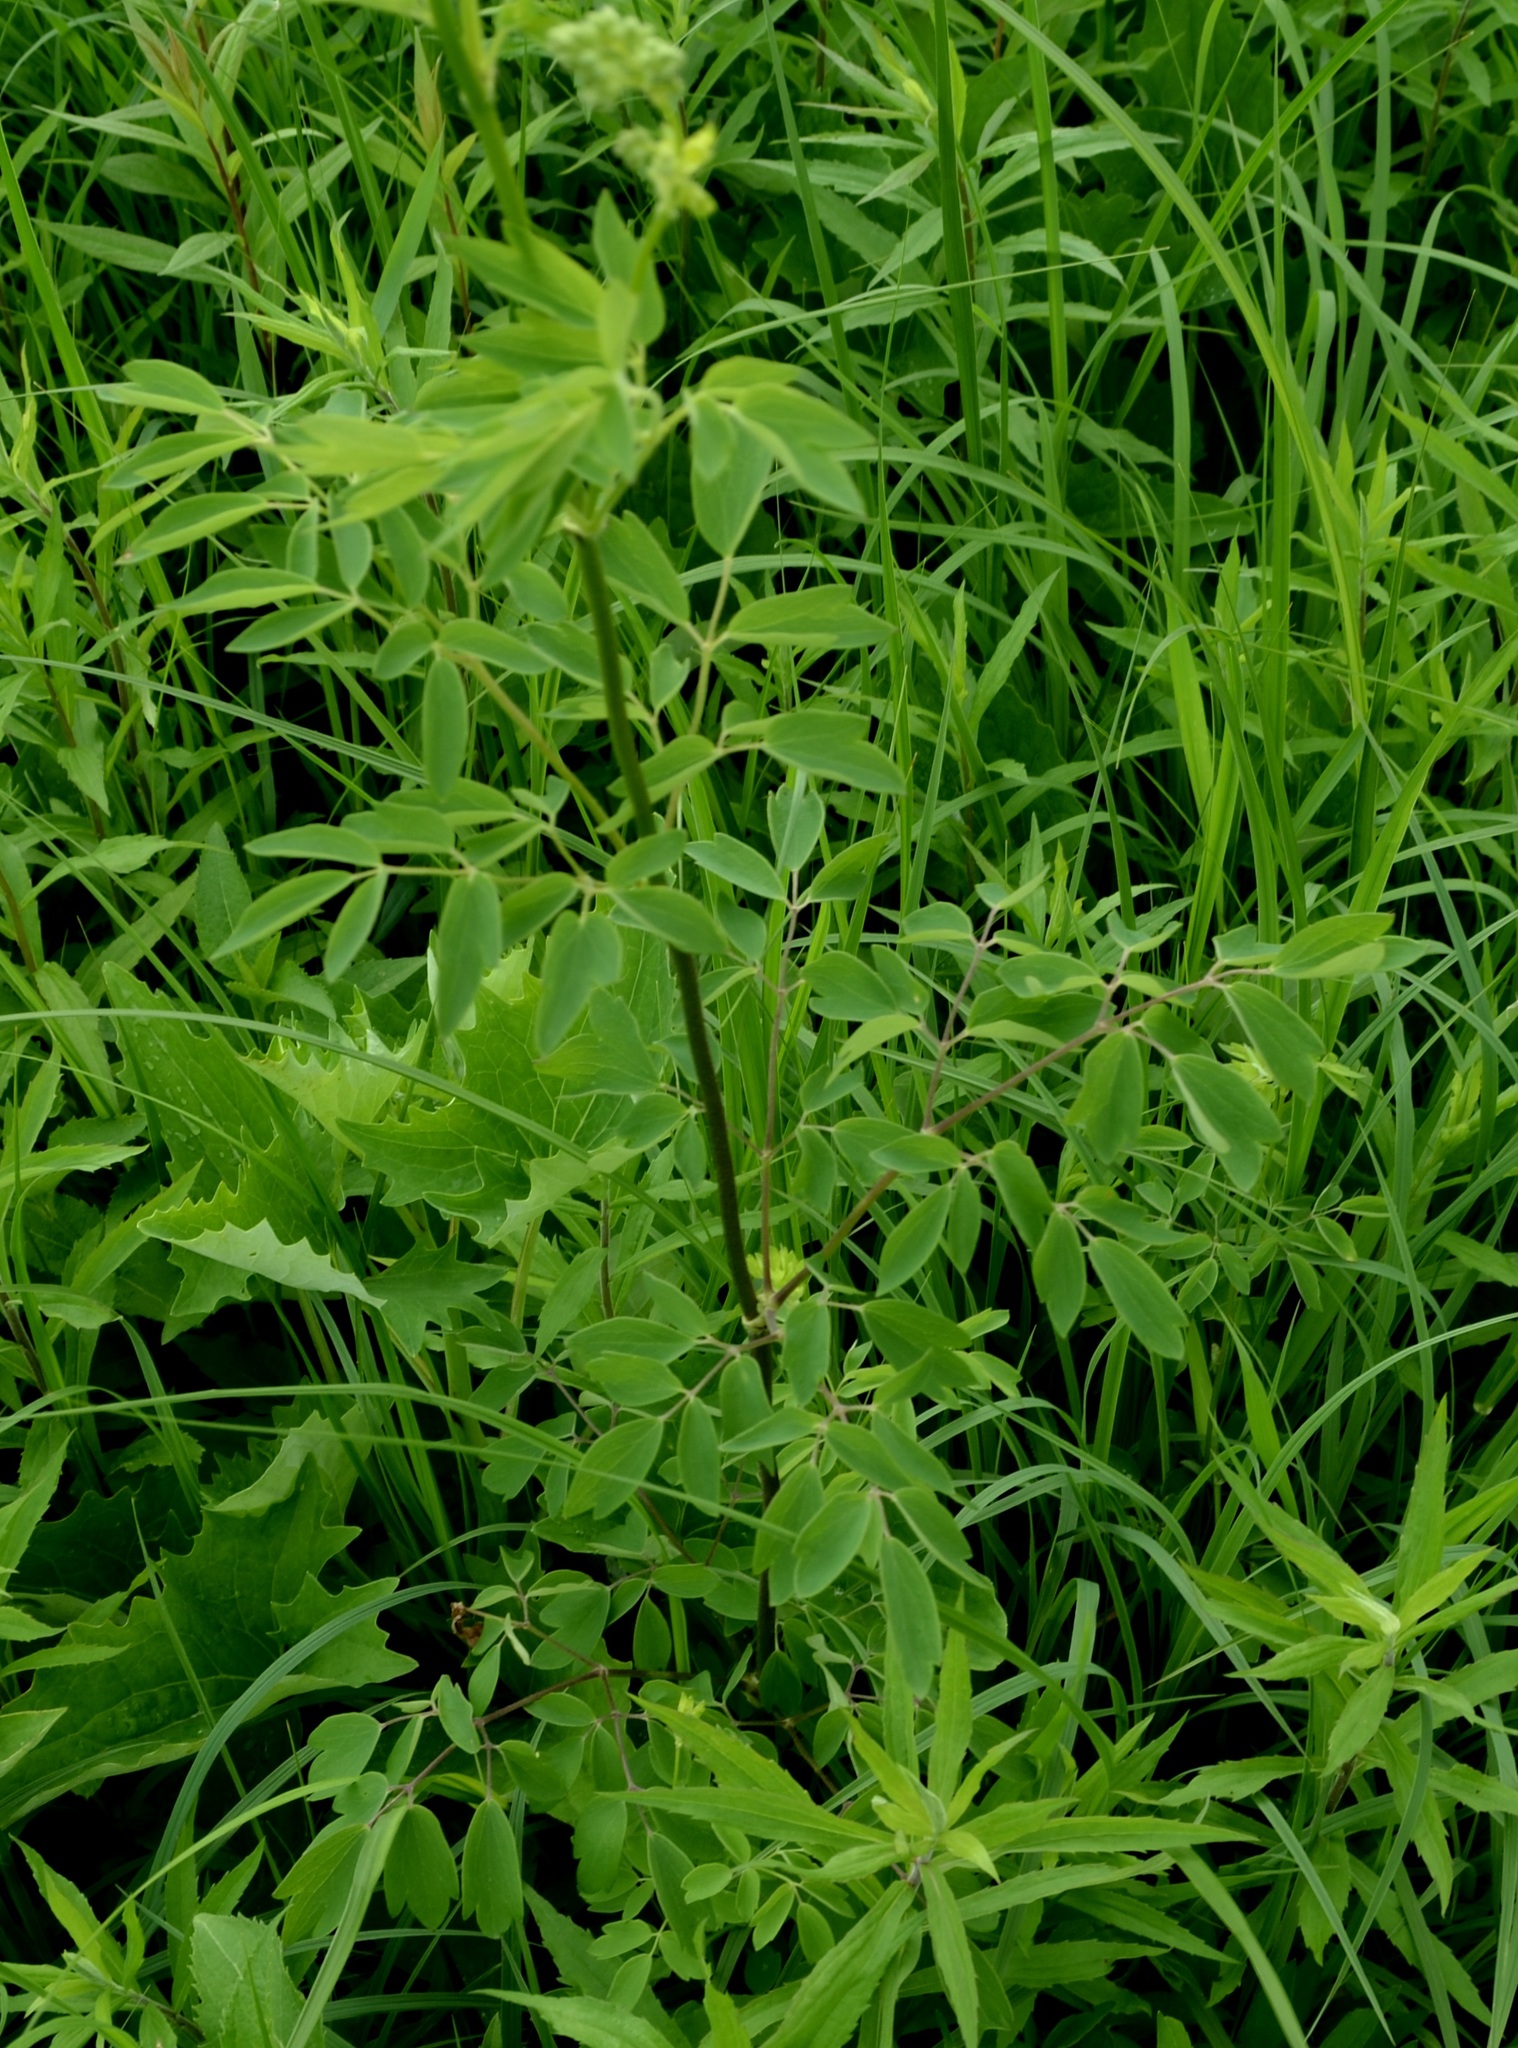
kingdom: Plantae
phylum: Tracheophyta
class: Magnoliopsida
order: Ranunculales
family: Ranunculaceae
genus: Thalictrum
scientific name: Thalictrum dasycarpum
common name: Purple meadow-rue
